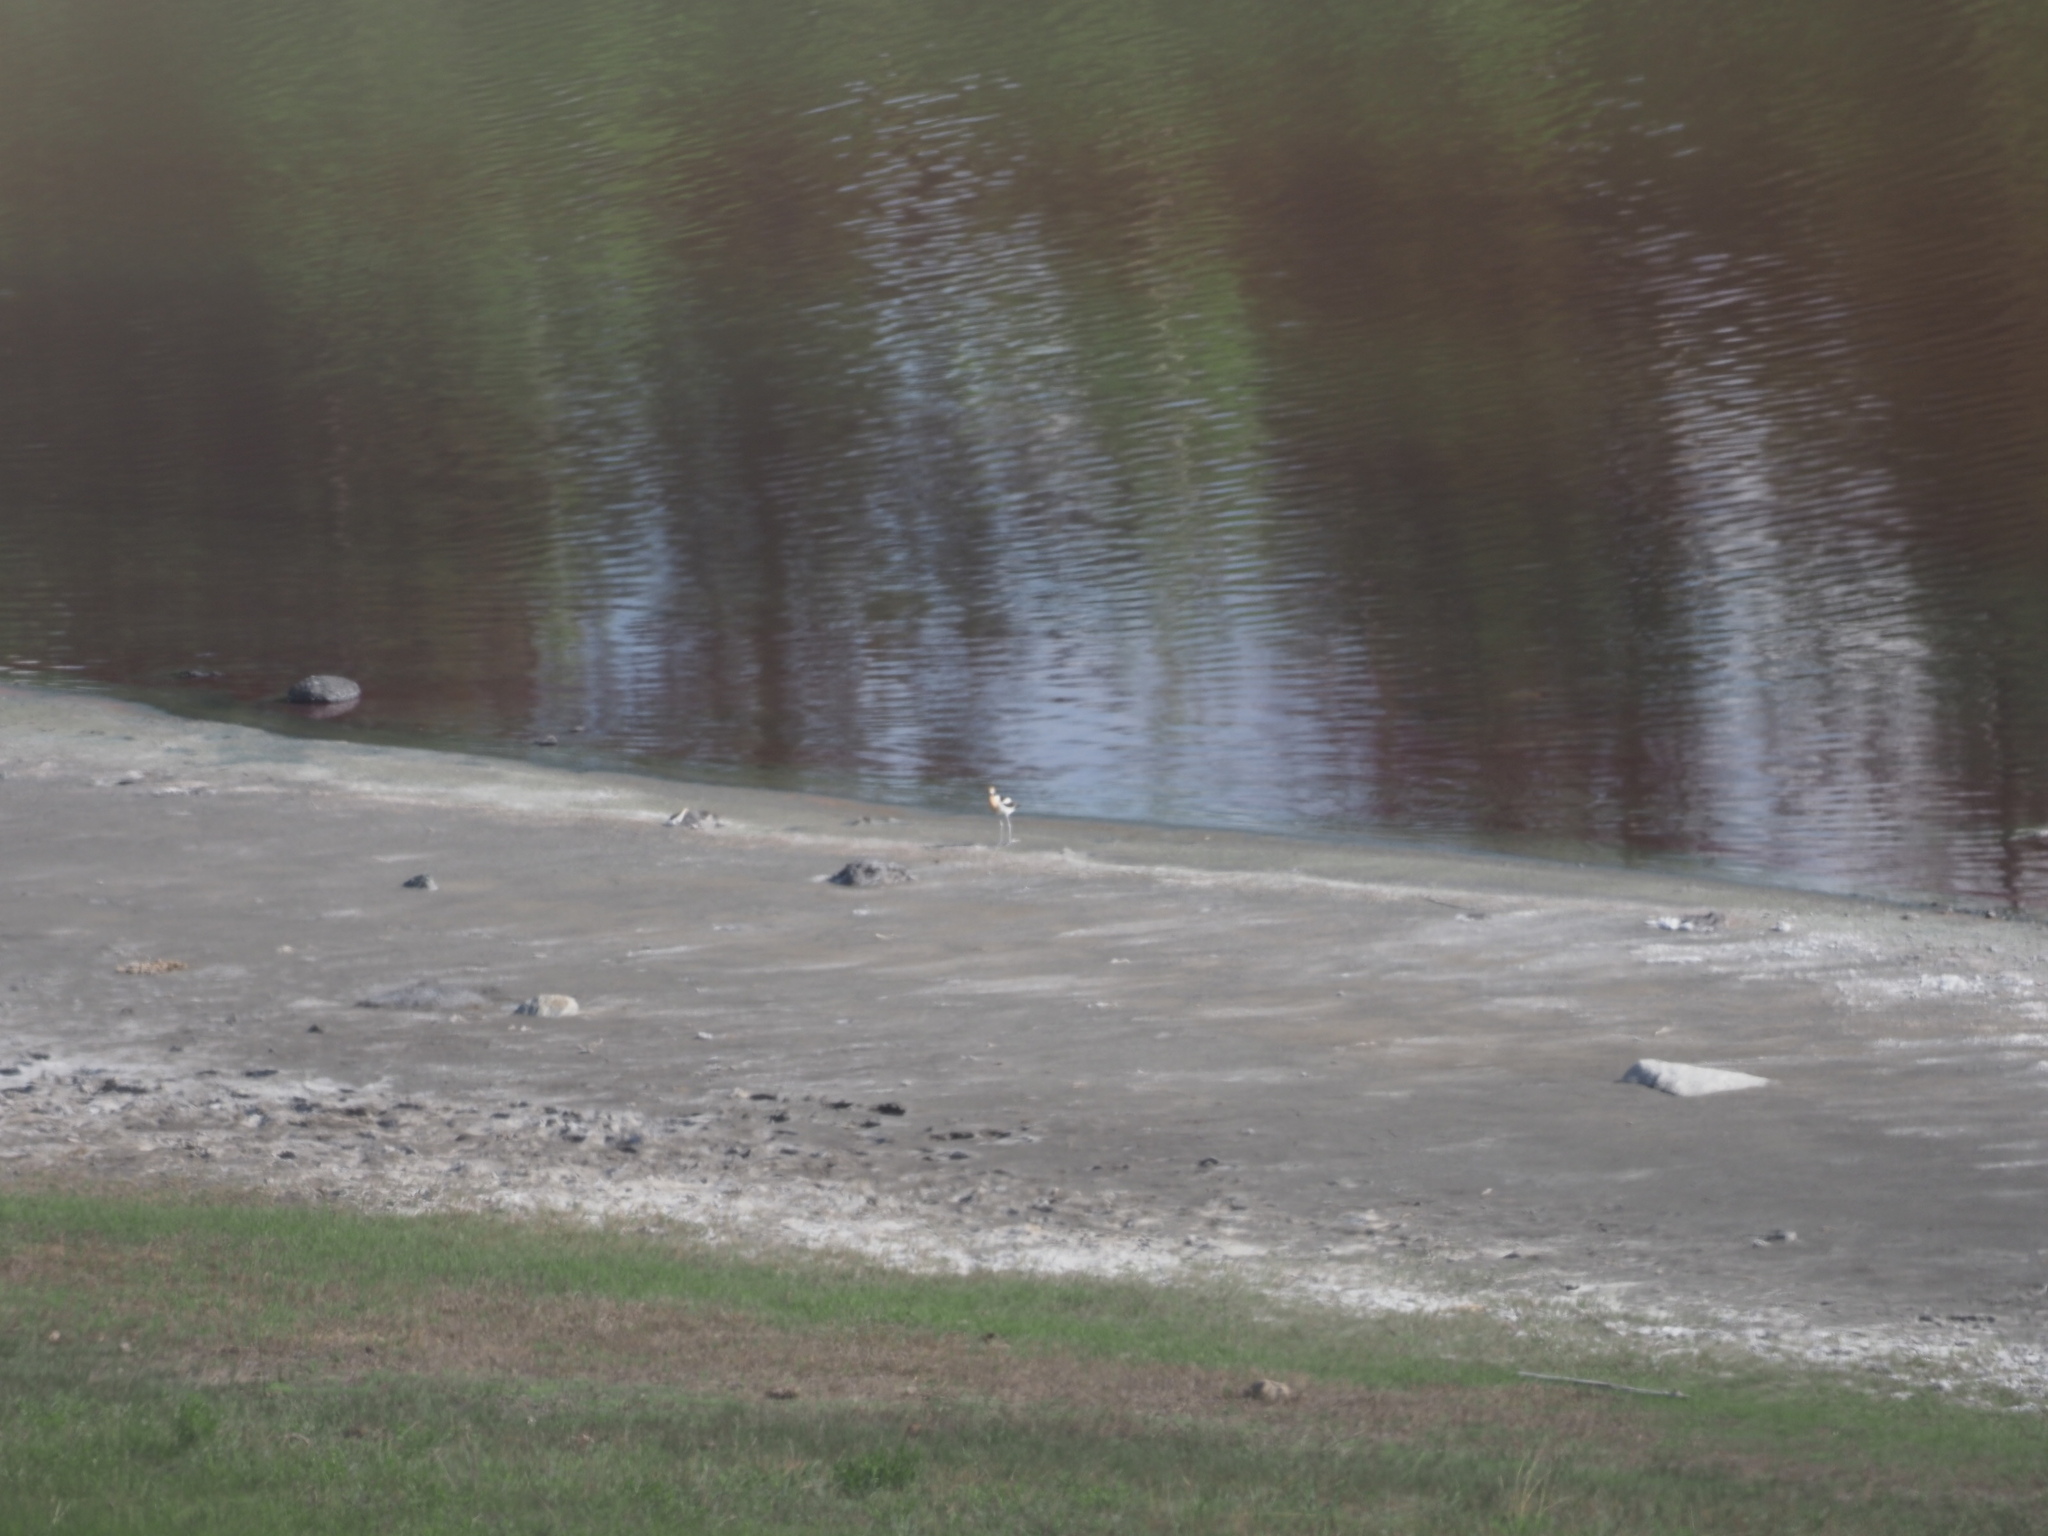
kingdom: Animalia
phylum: Chordata
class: Aves
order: Charadriiformes
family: Recurvirostridae
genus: Recurvirostra
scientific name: Recurvirostra americana
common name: American avocet
